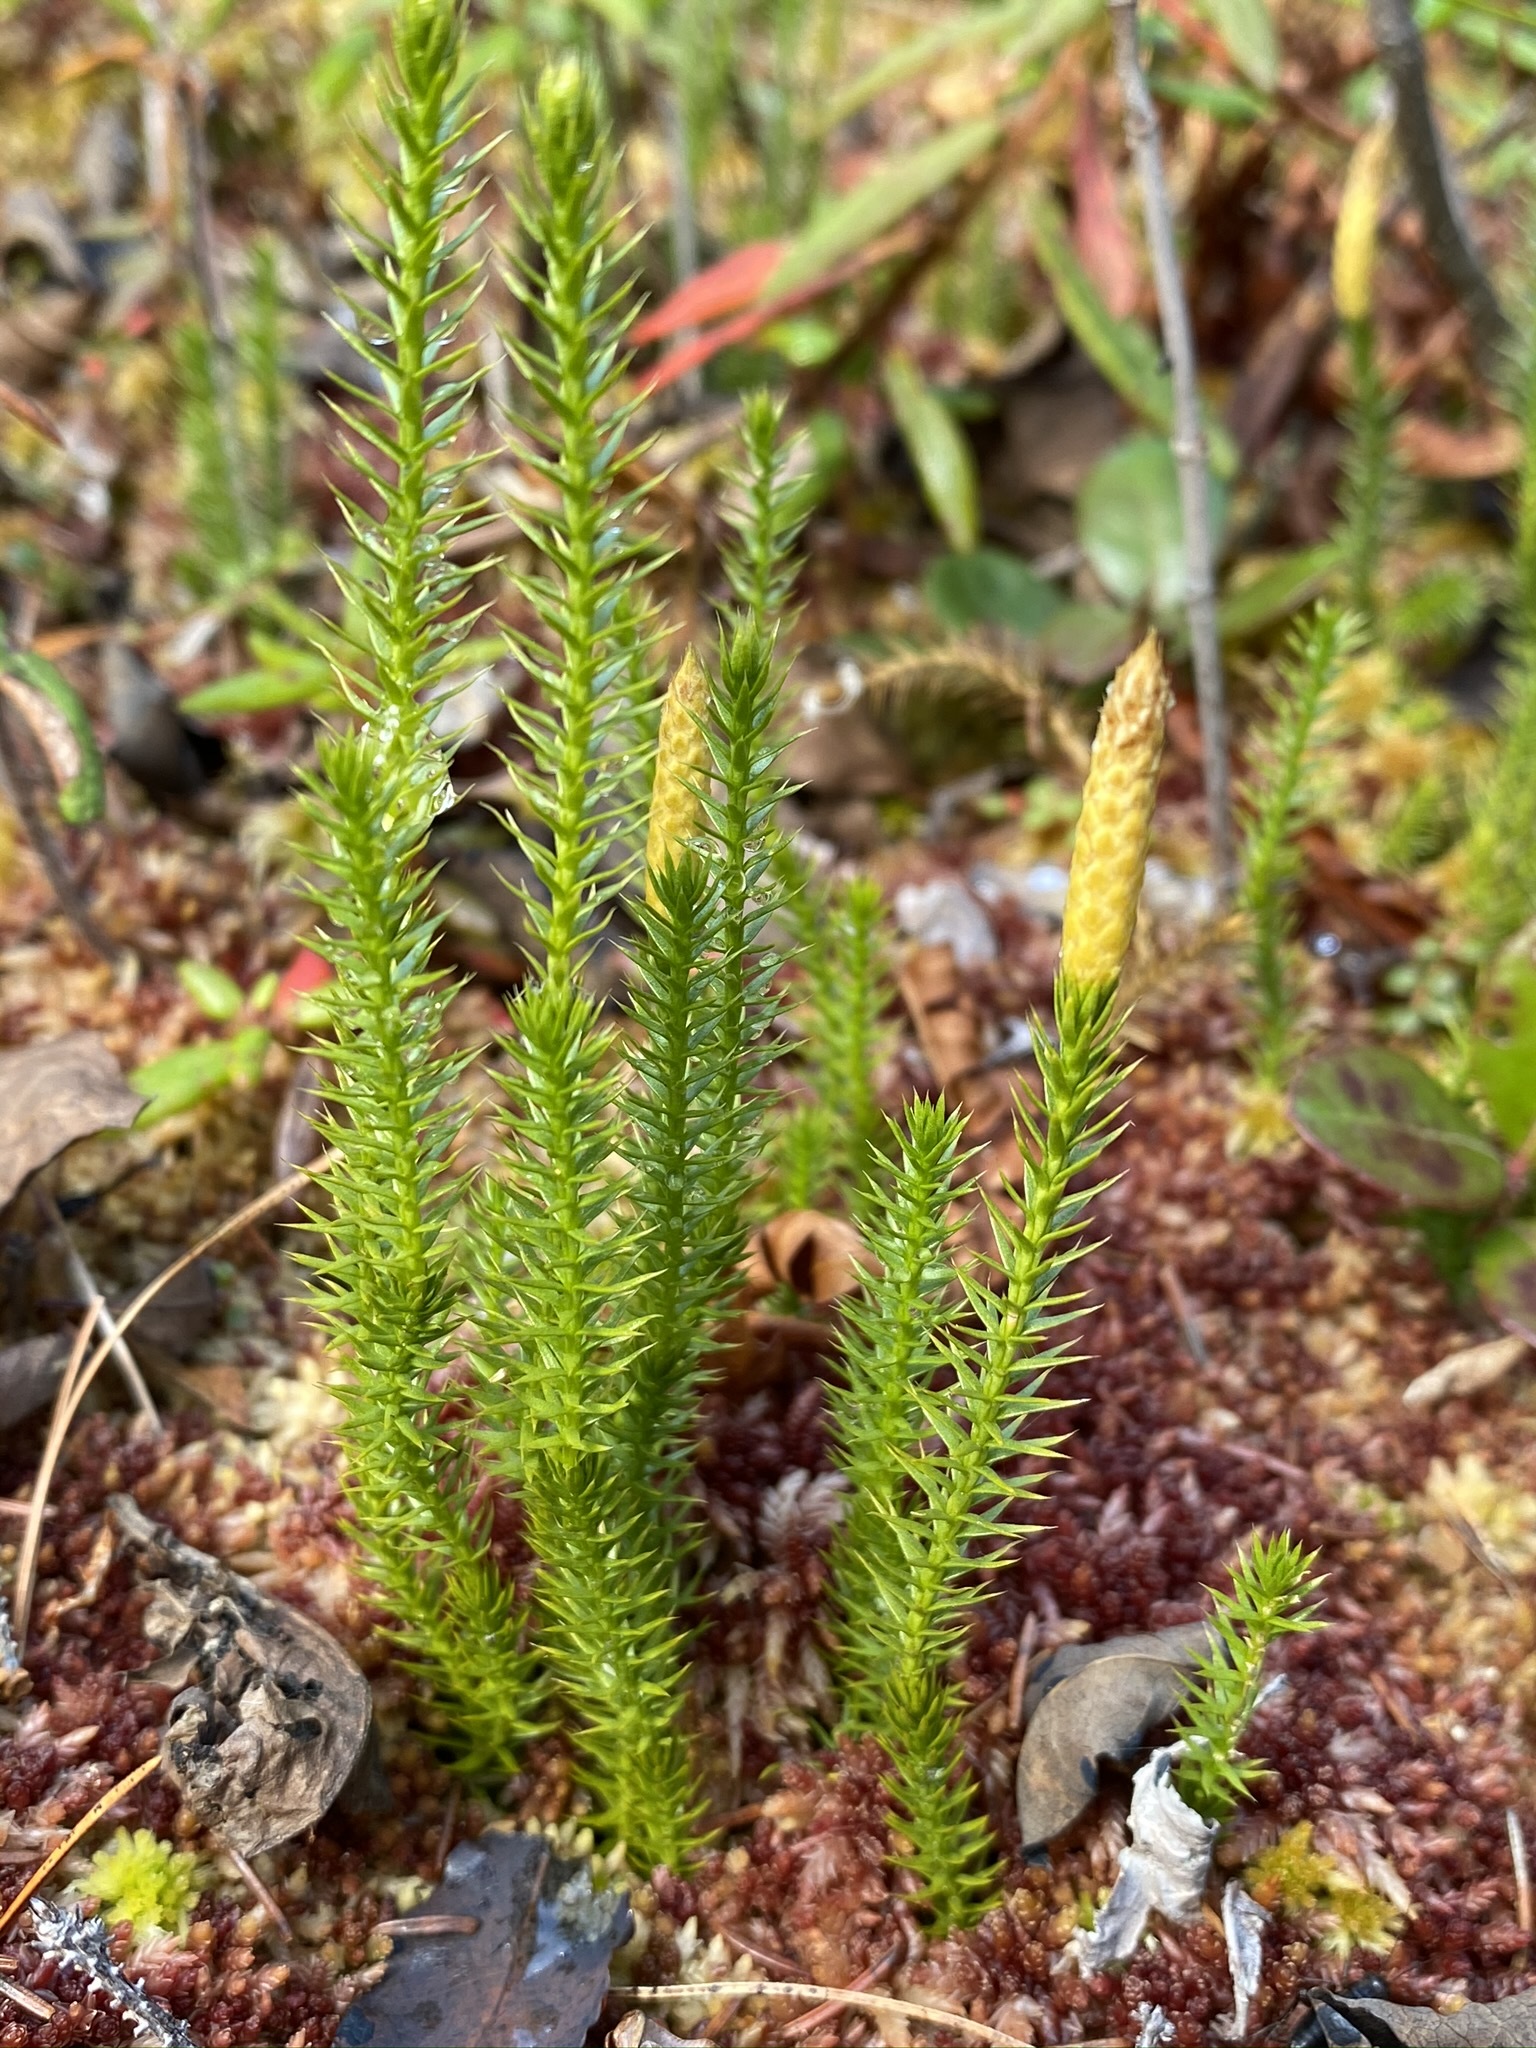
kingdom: Plantae
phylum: Tracheophyta
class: Lycopodiopsida
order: Lycopodiales
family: Lycopodiaceae
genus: Spinulum
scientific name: Spinulum annotinum
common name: Interrupted club-moss
